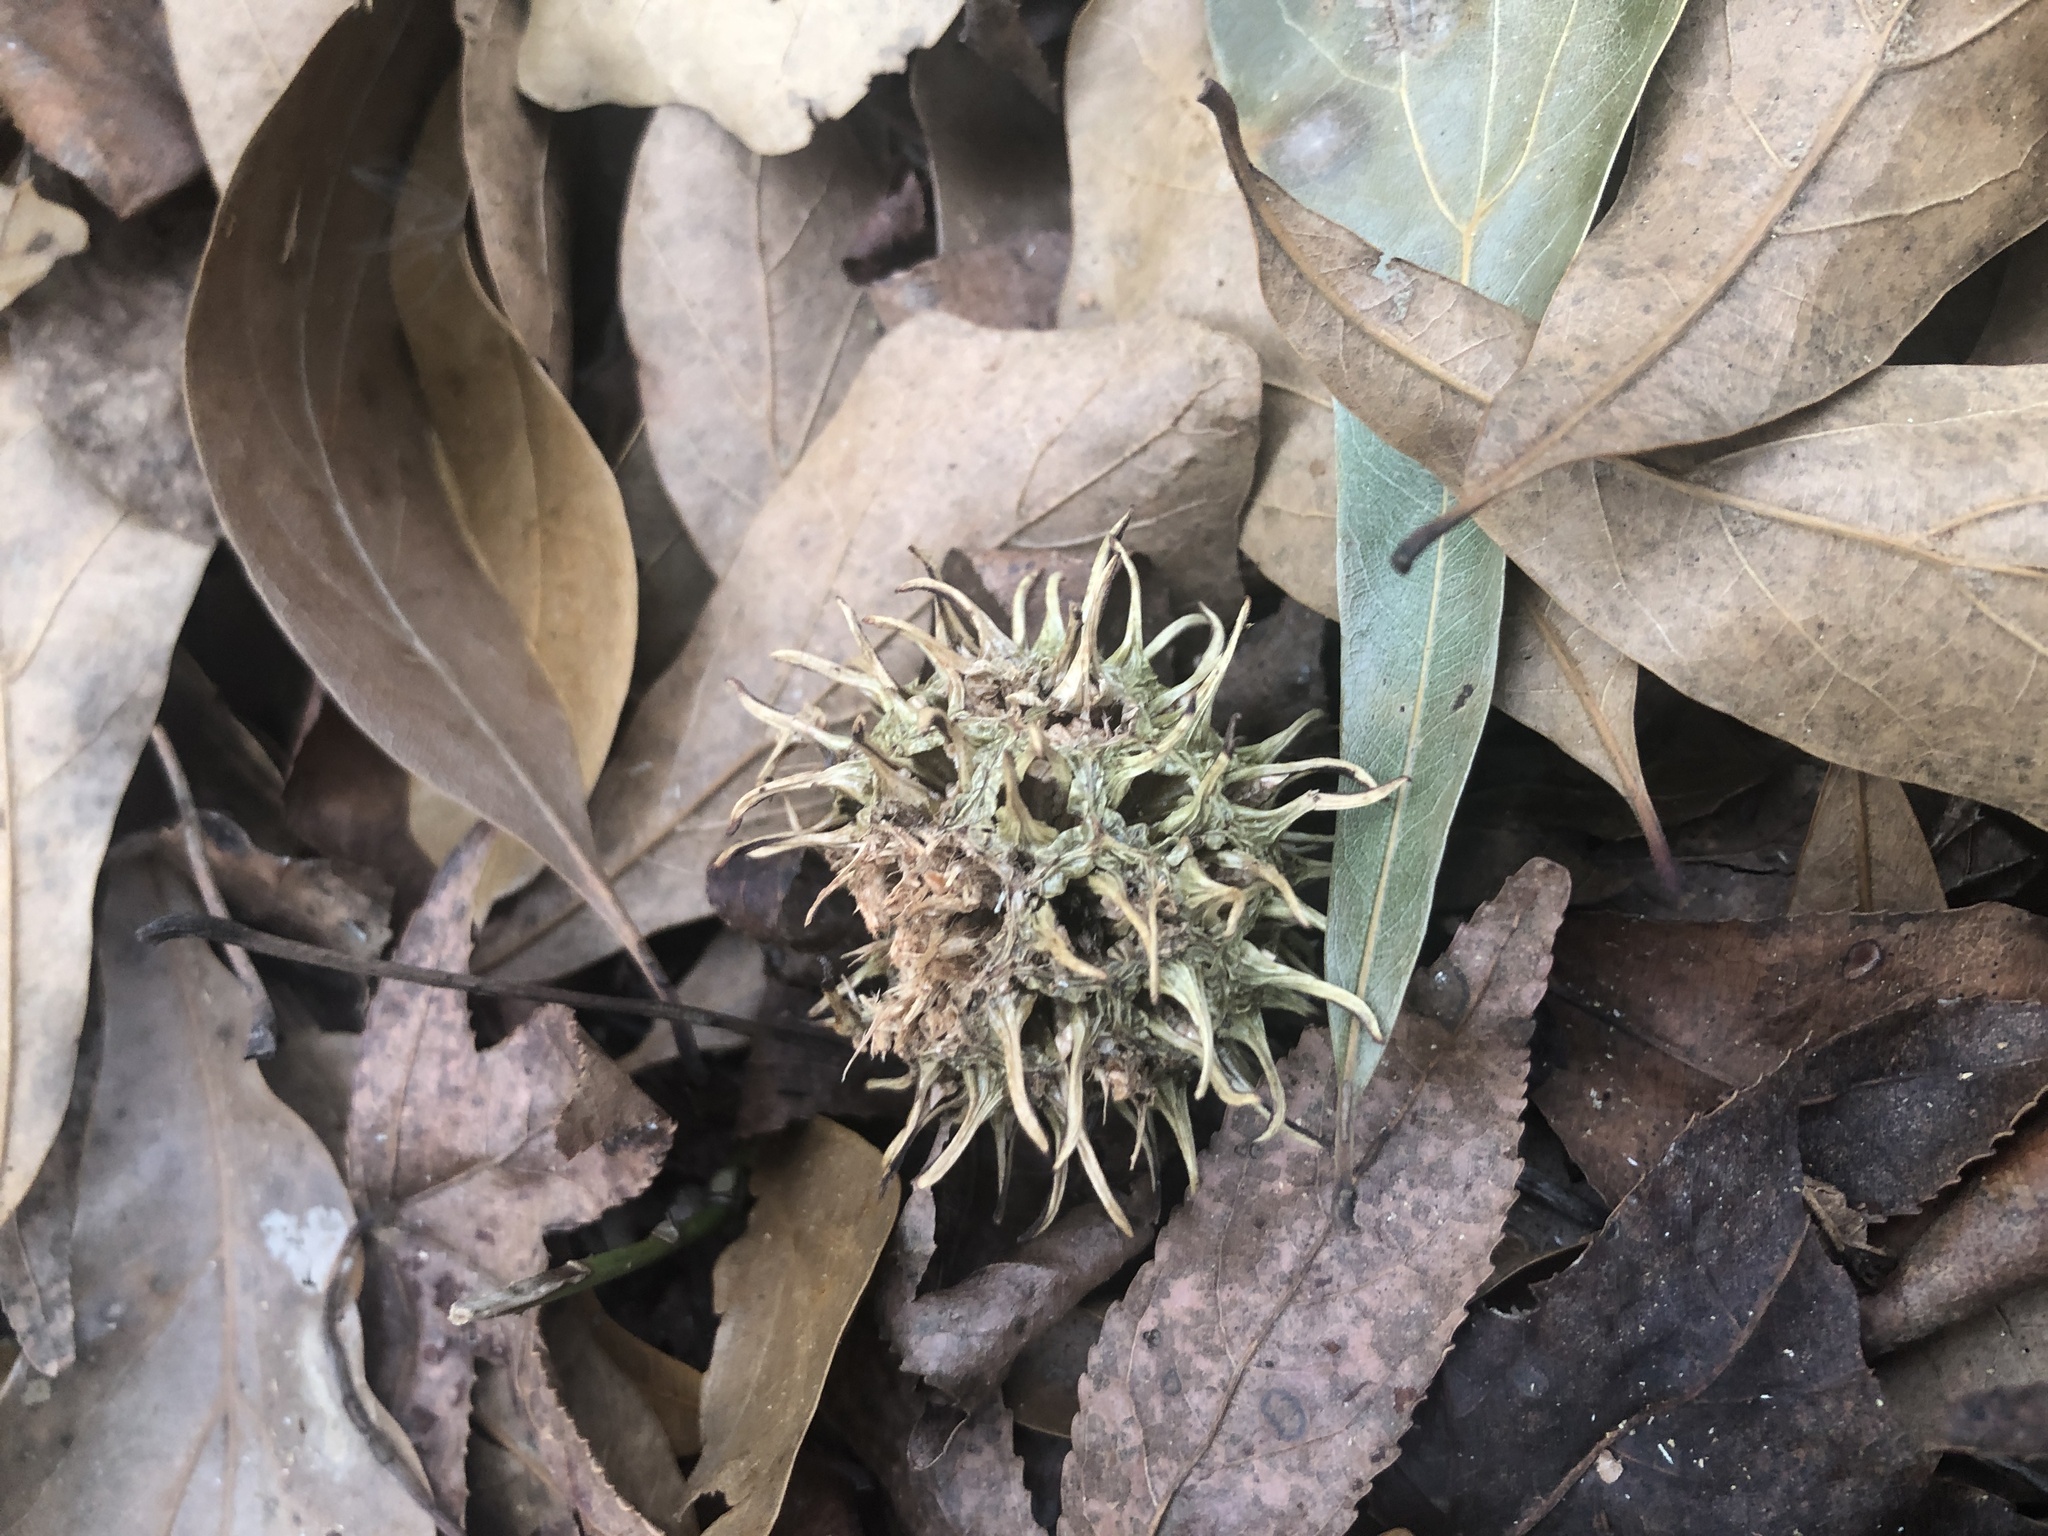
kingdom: Plantae
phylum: Tracheophyta
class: Magnoliopsida
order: Saxifragales
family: Altingiaceae
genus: Liquidambar
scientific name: Liquidambar styraciflua
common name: Sweet gum
